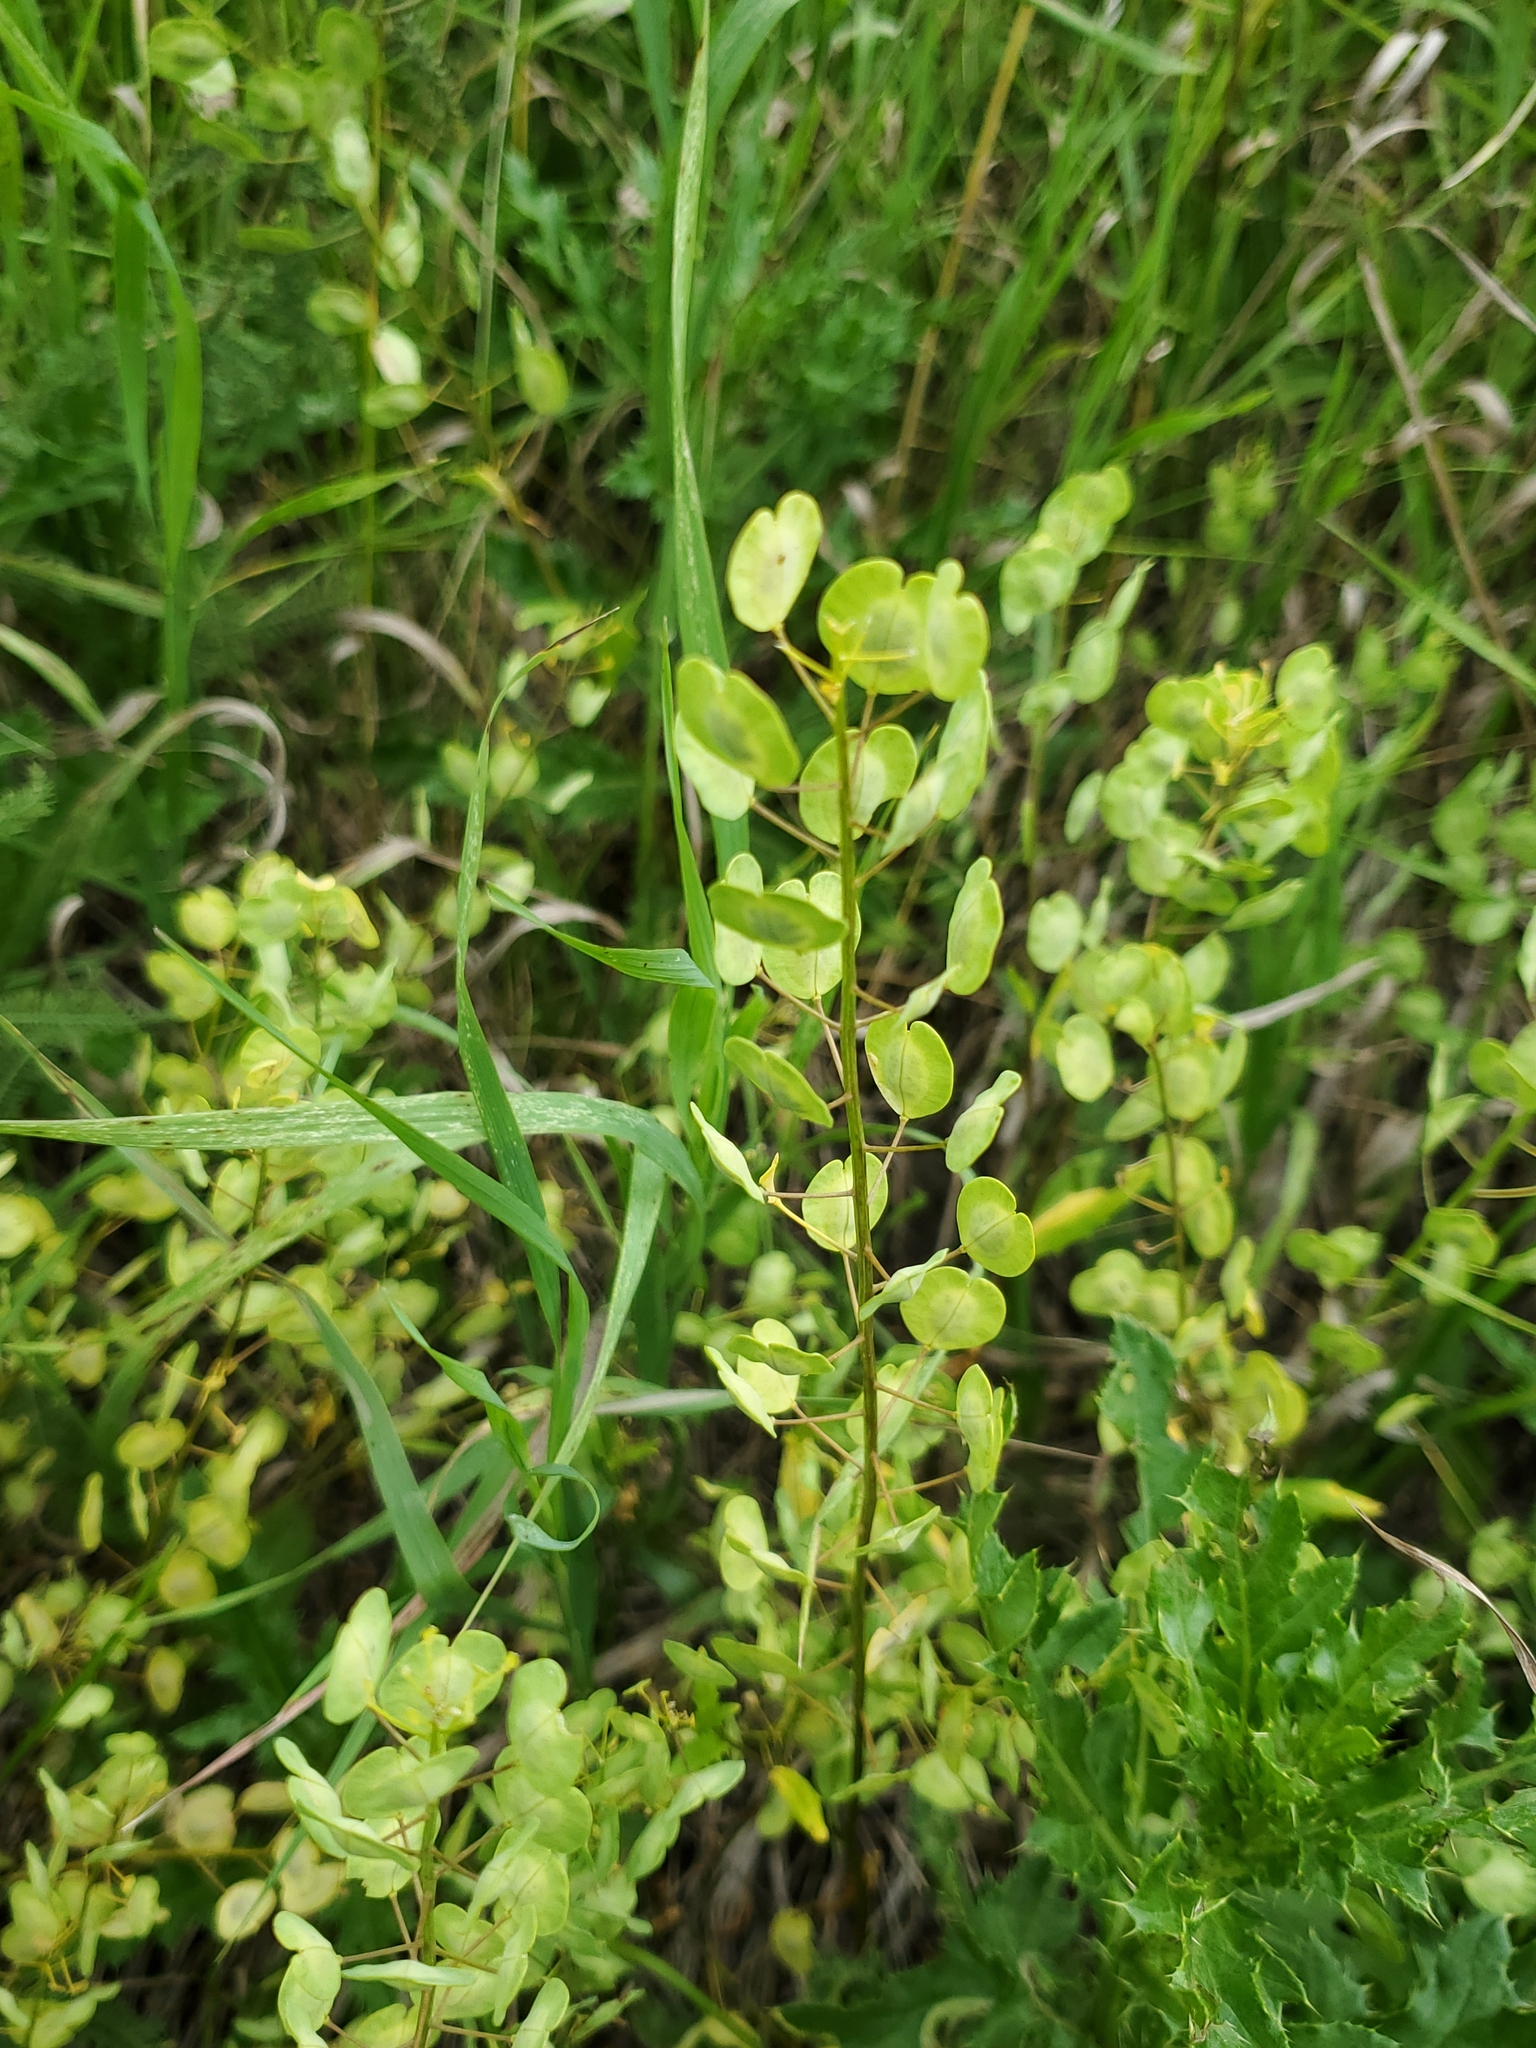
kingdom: Plantae
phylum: Tracheophyta
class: Magnoliopsida
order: Brassicales
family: Brassicaceae
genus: Thlaspi
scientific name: Thlaspi arvense
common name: Field pennycress
